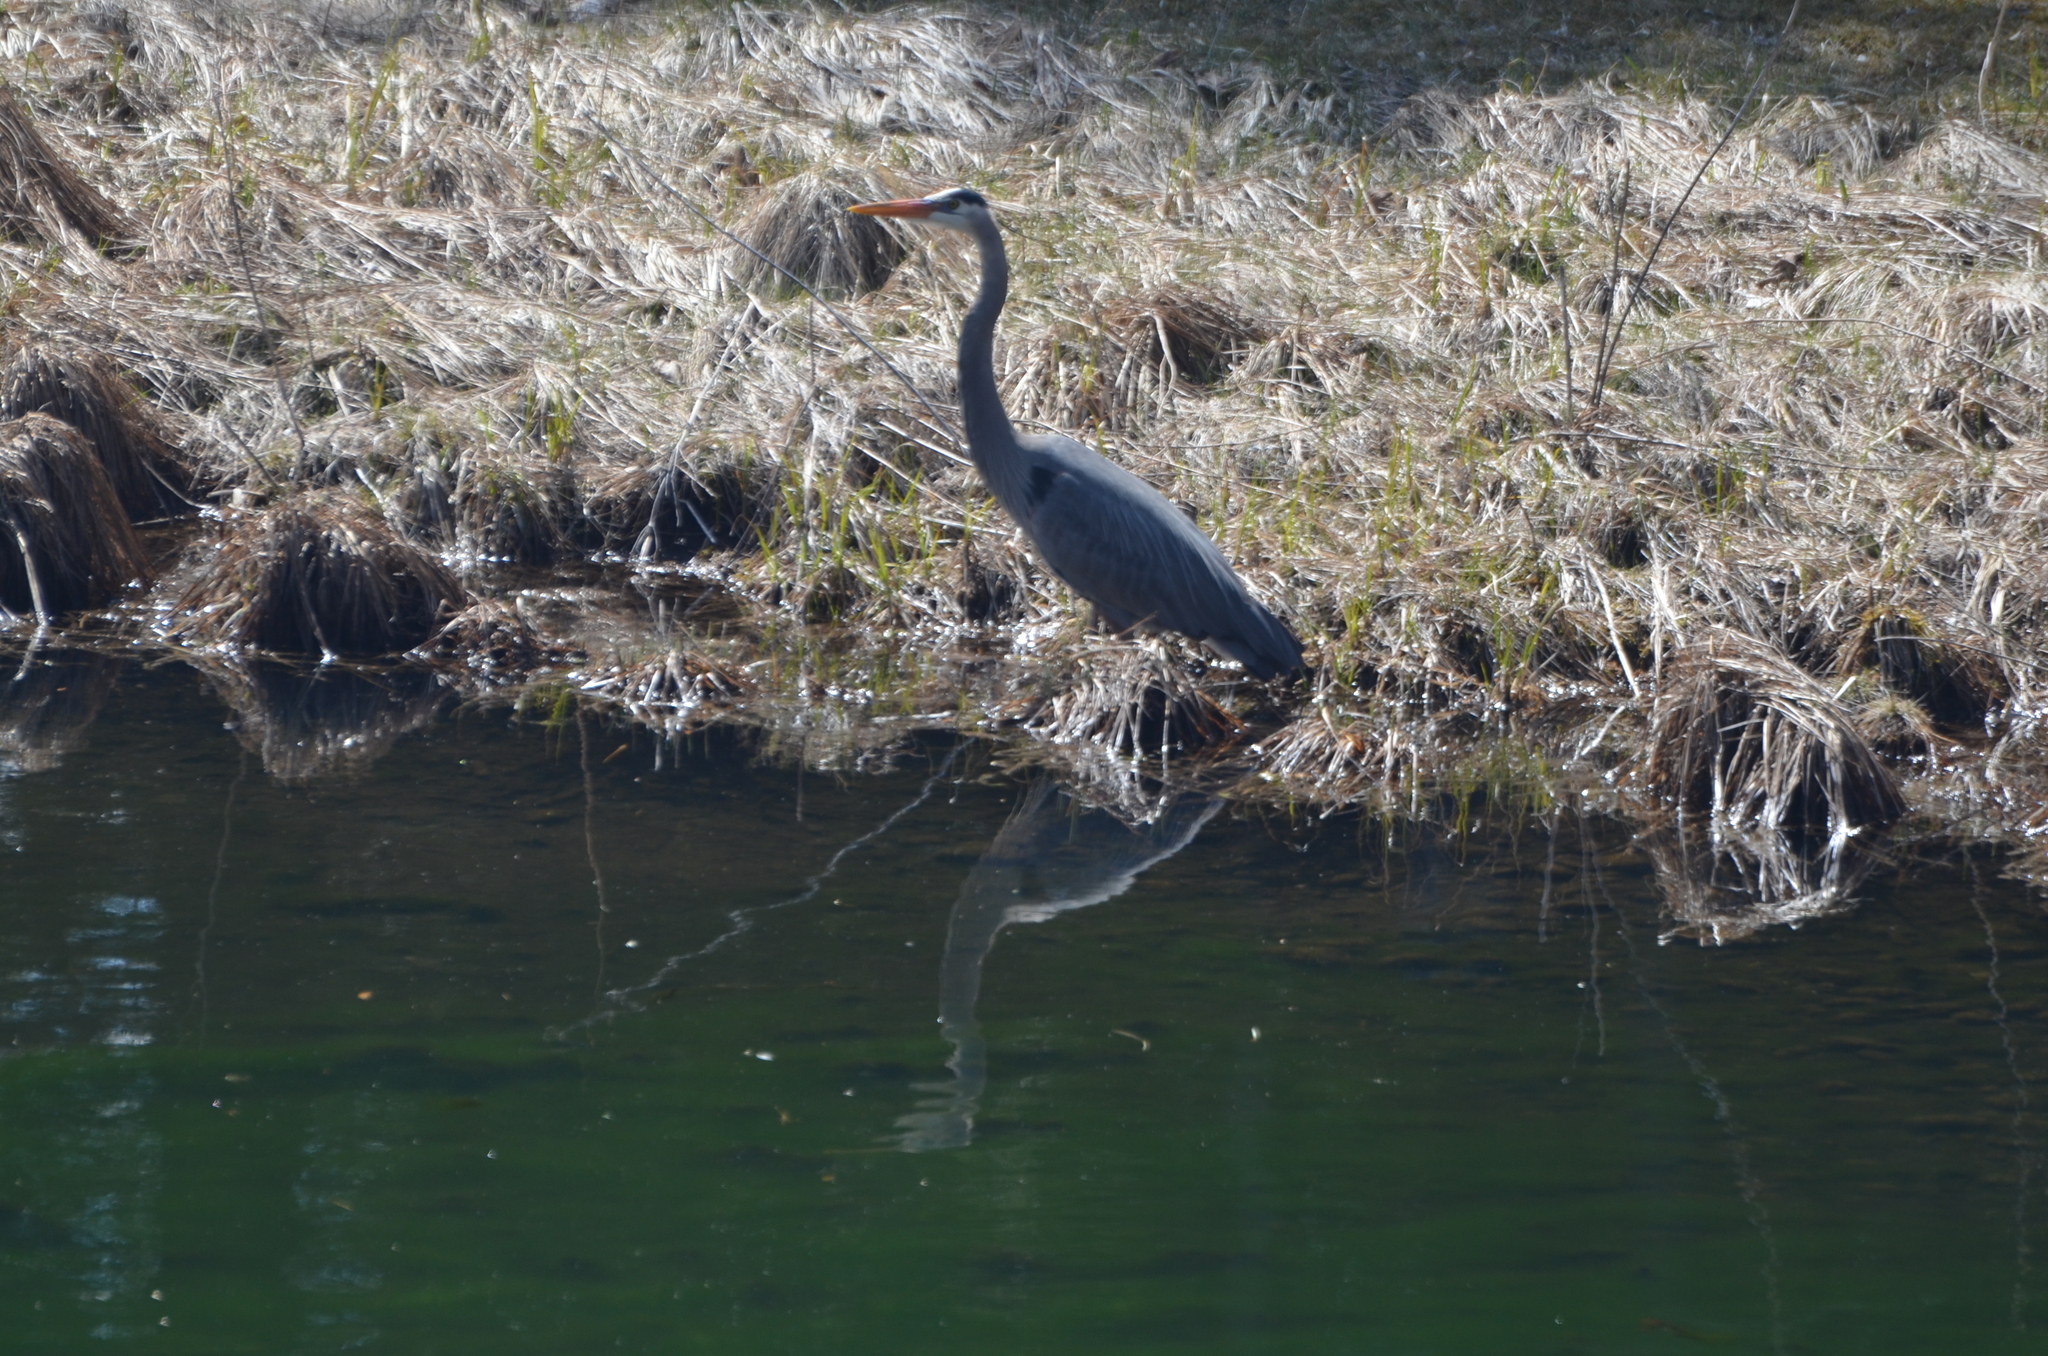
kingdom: Animalia
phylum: Chordata
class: Aves
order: Pelecaniformes
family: Ardeidae
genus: Ardea
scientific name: Ardea herodias
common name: Great blue heron
